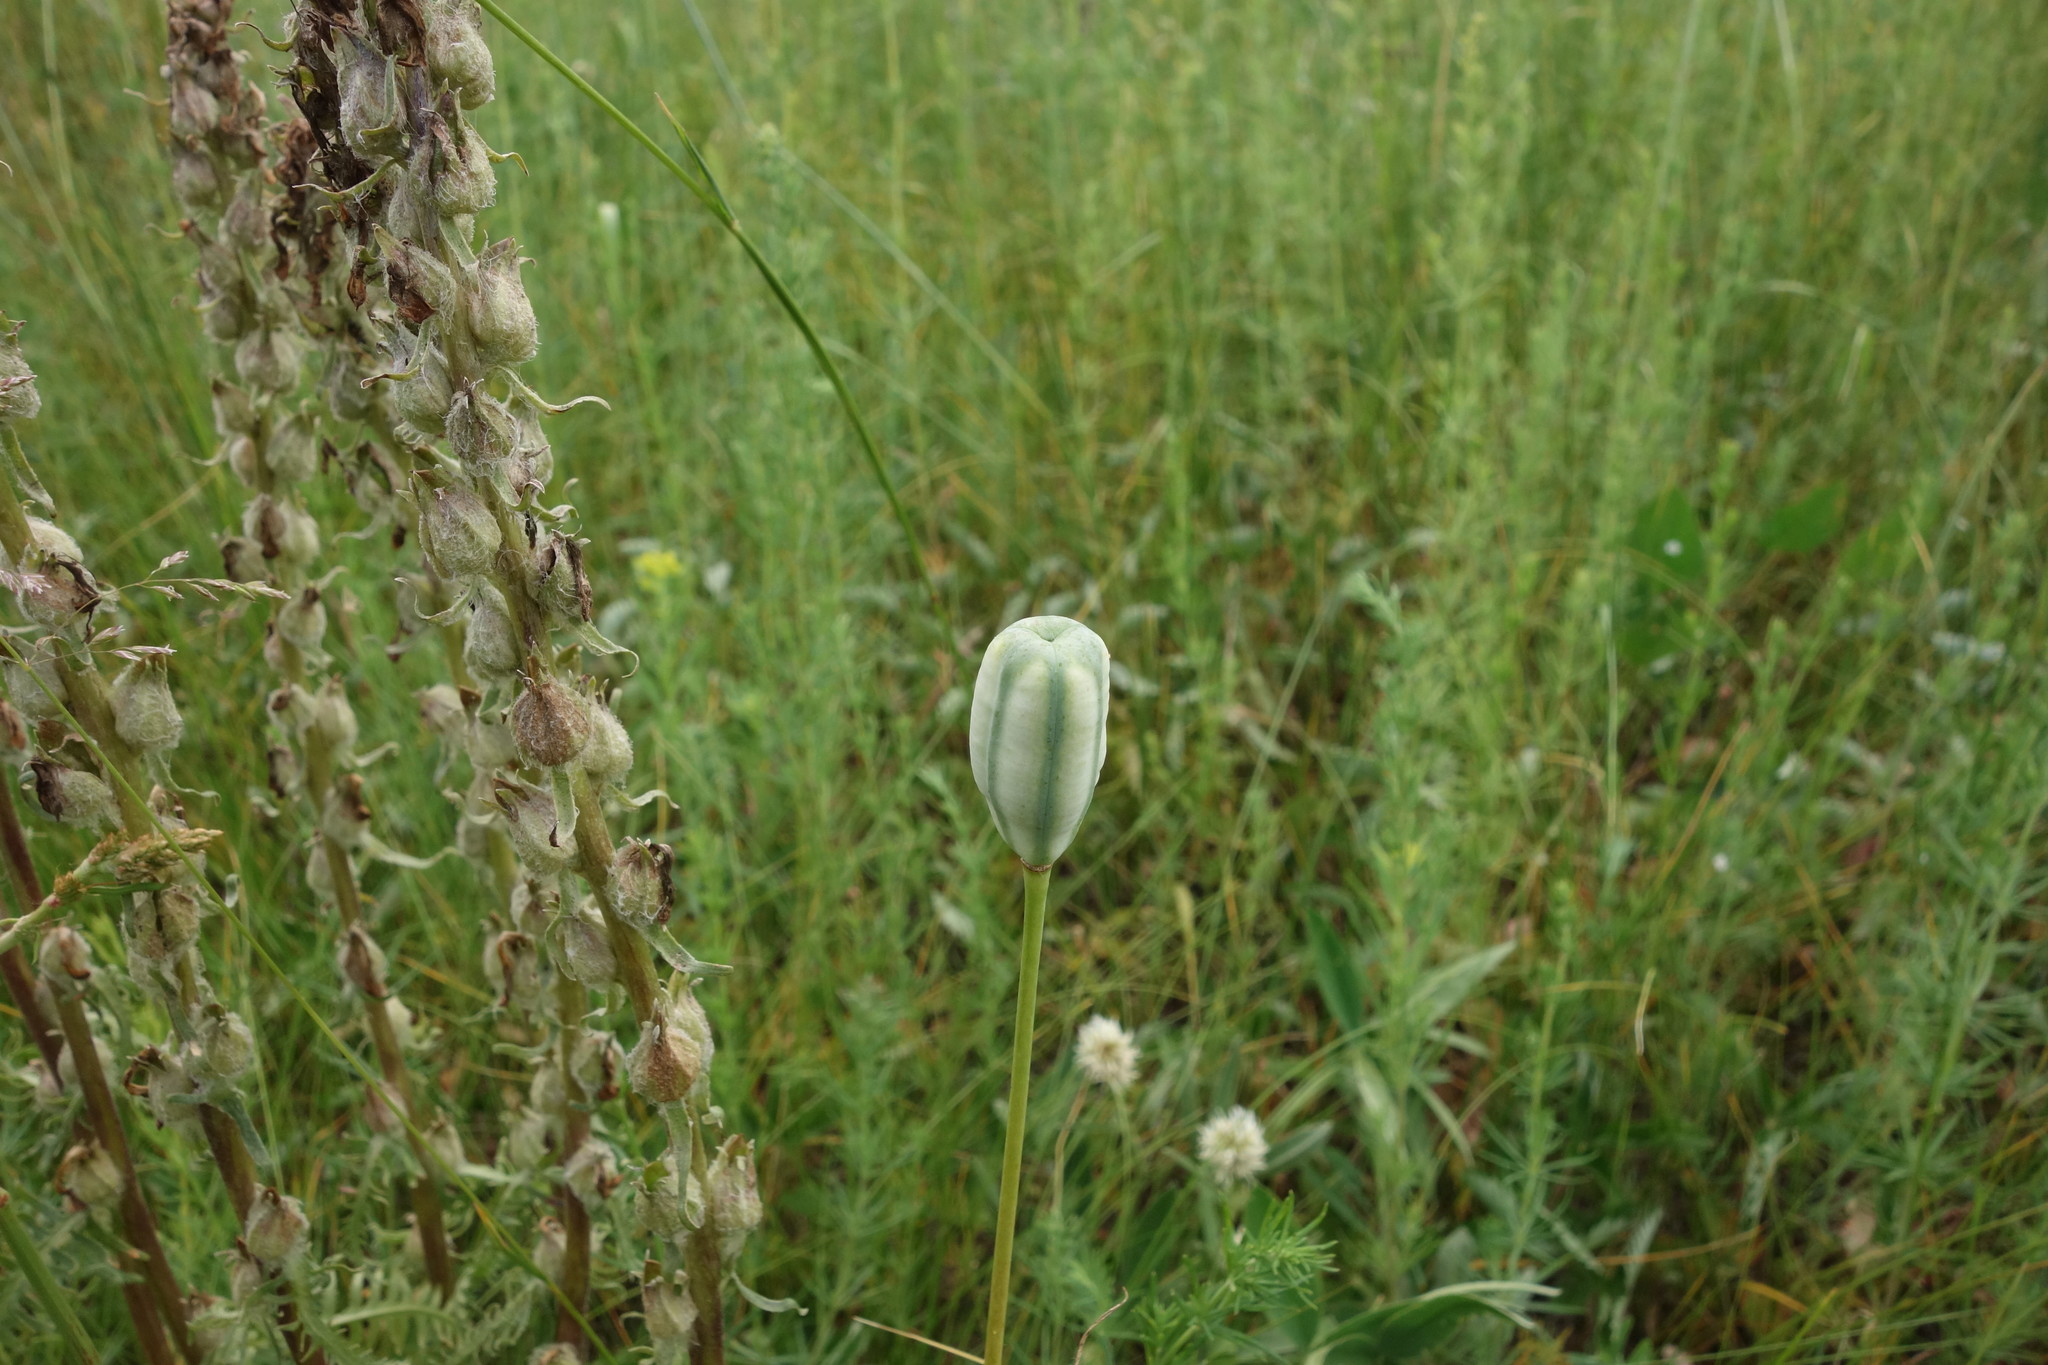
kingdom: Plantae
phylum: Tracheophyta
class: Liliopsida
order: Liliales
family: Liliaceae
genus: Fritillaria
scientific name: Fritillaria meleagroides
